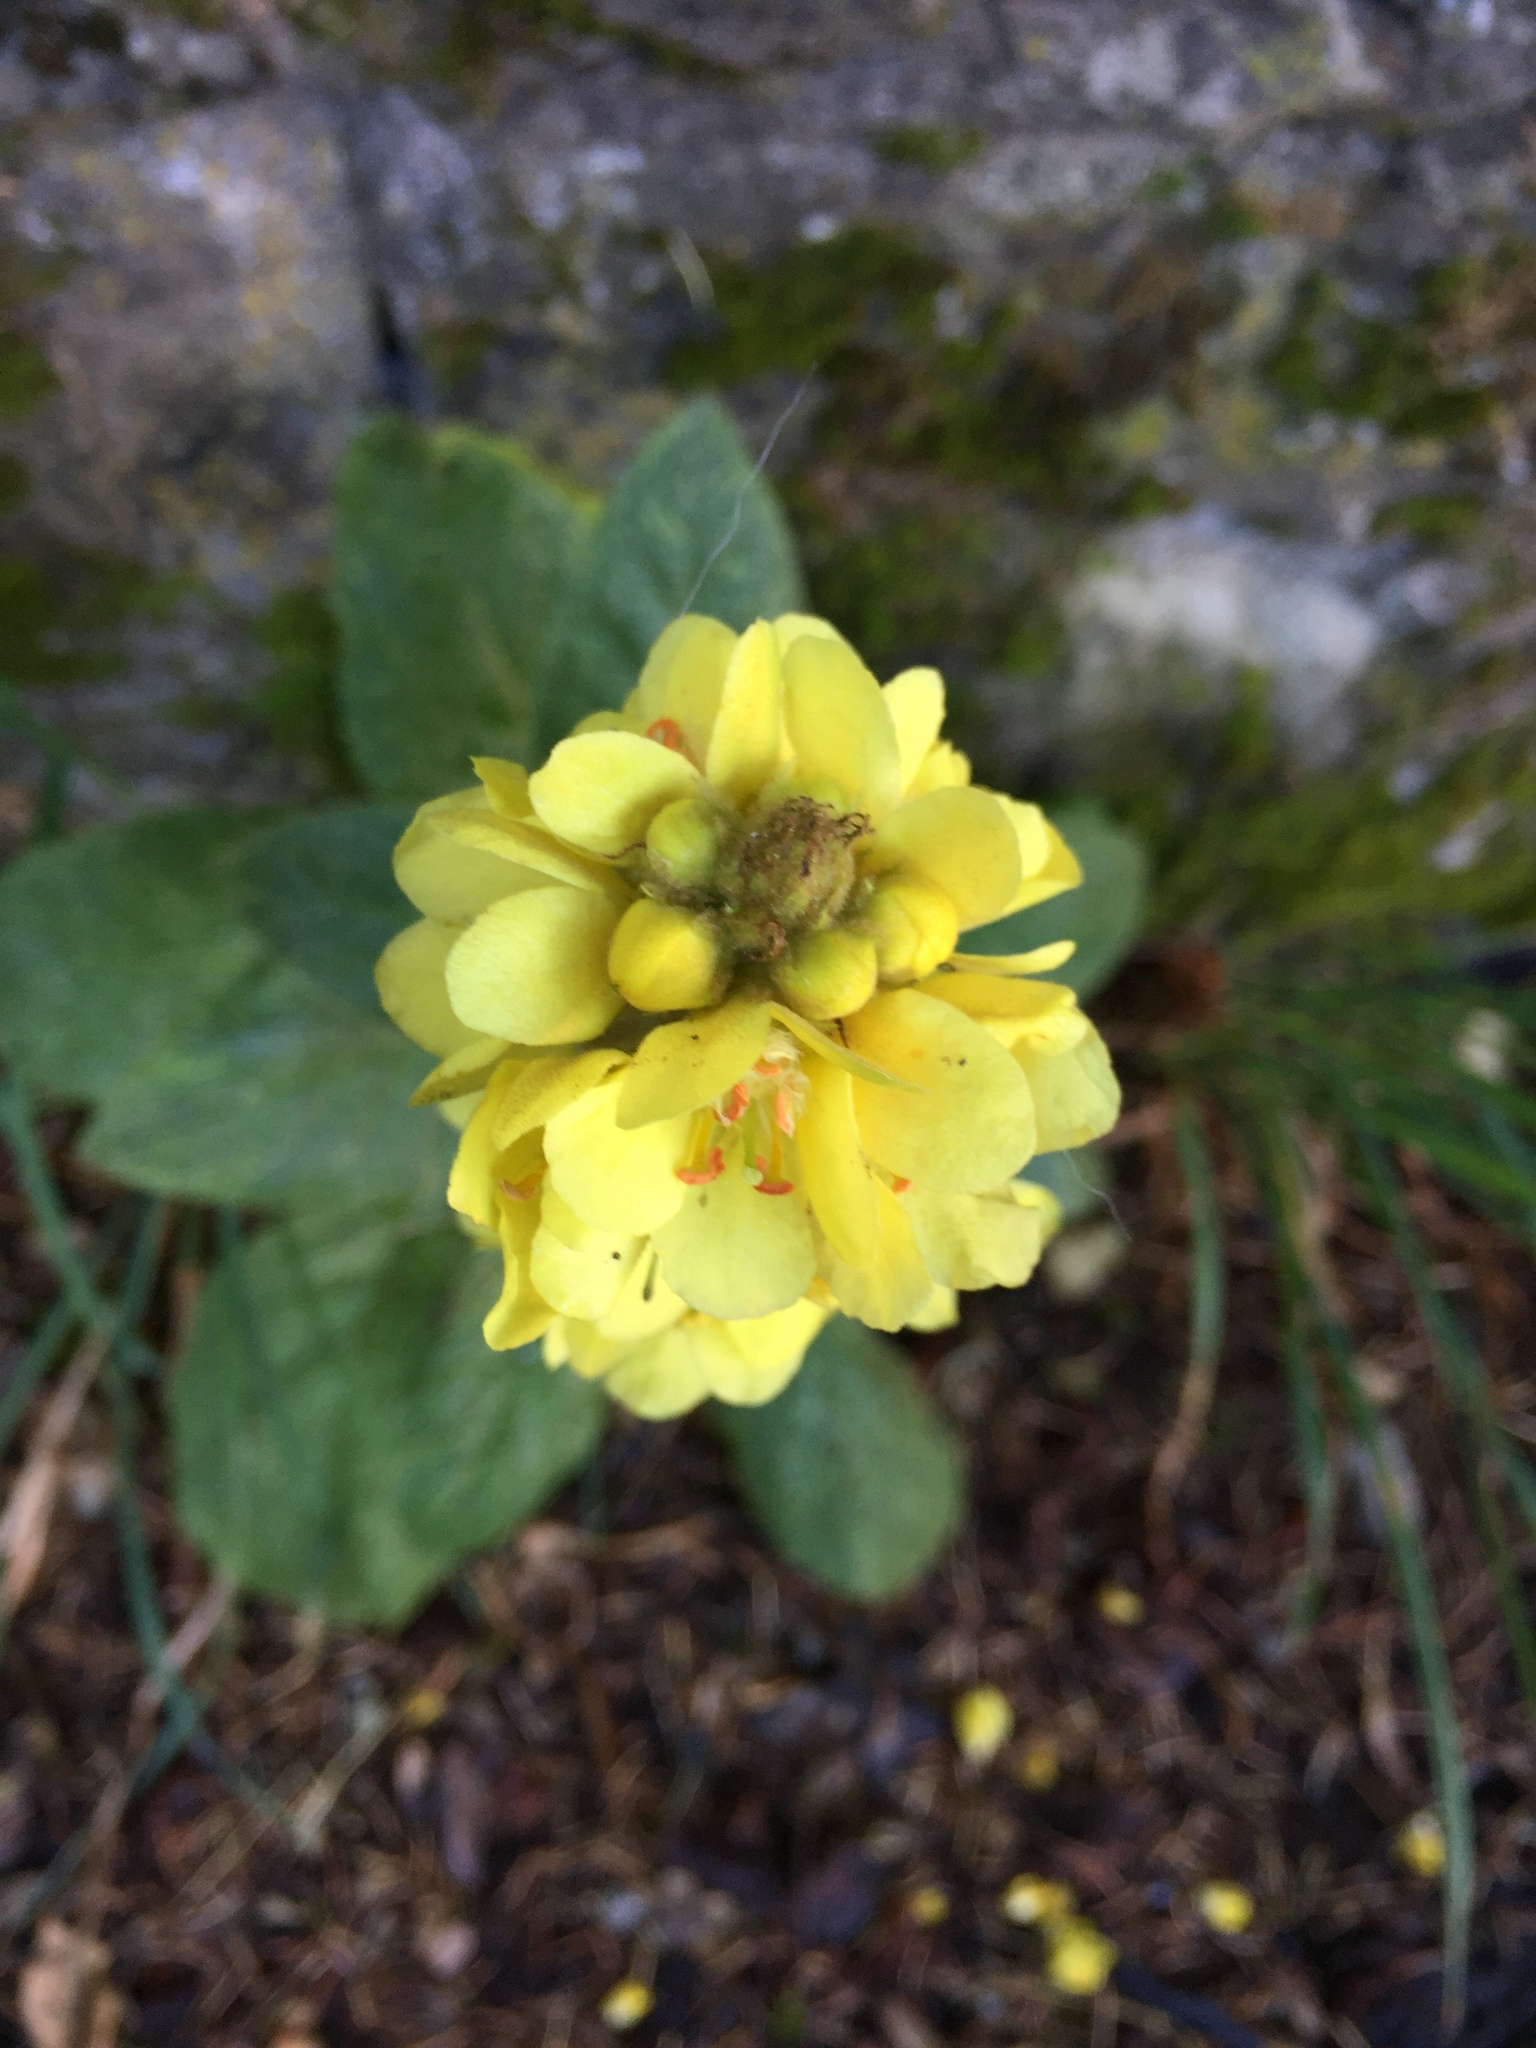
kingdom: Plantae
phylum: Tracheophyta
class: Magnoliopsida
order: Lamiales
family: Scrophulariaceae
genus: Verbascum
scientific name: Verbascum thapsus
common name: Common mullein
